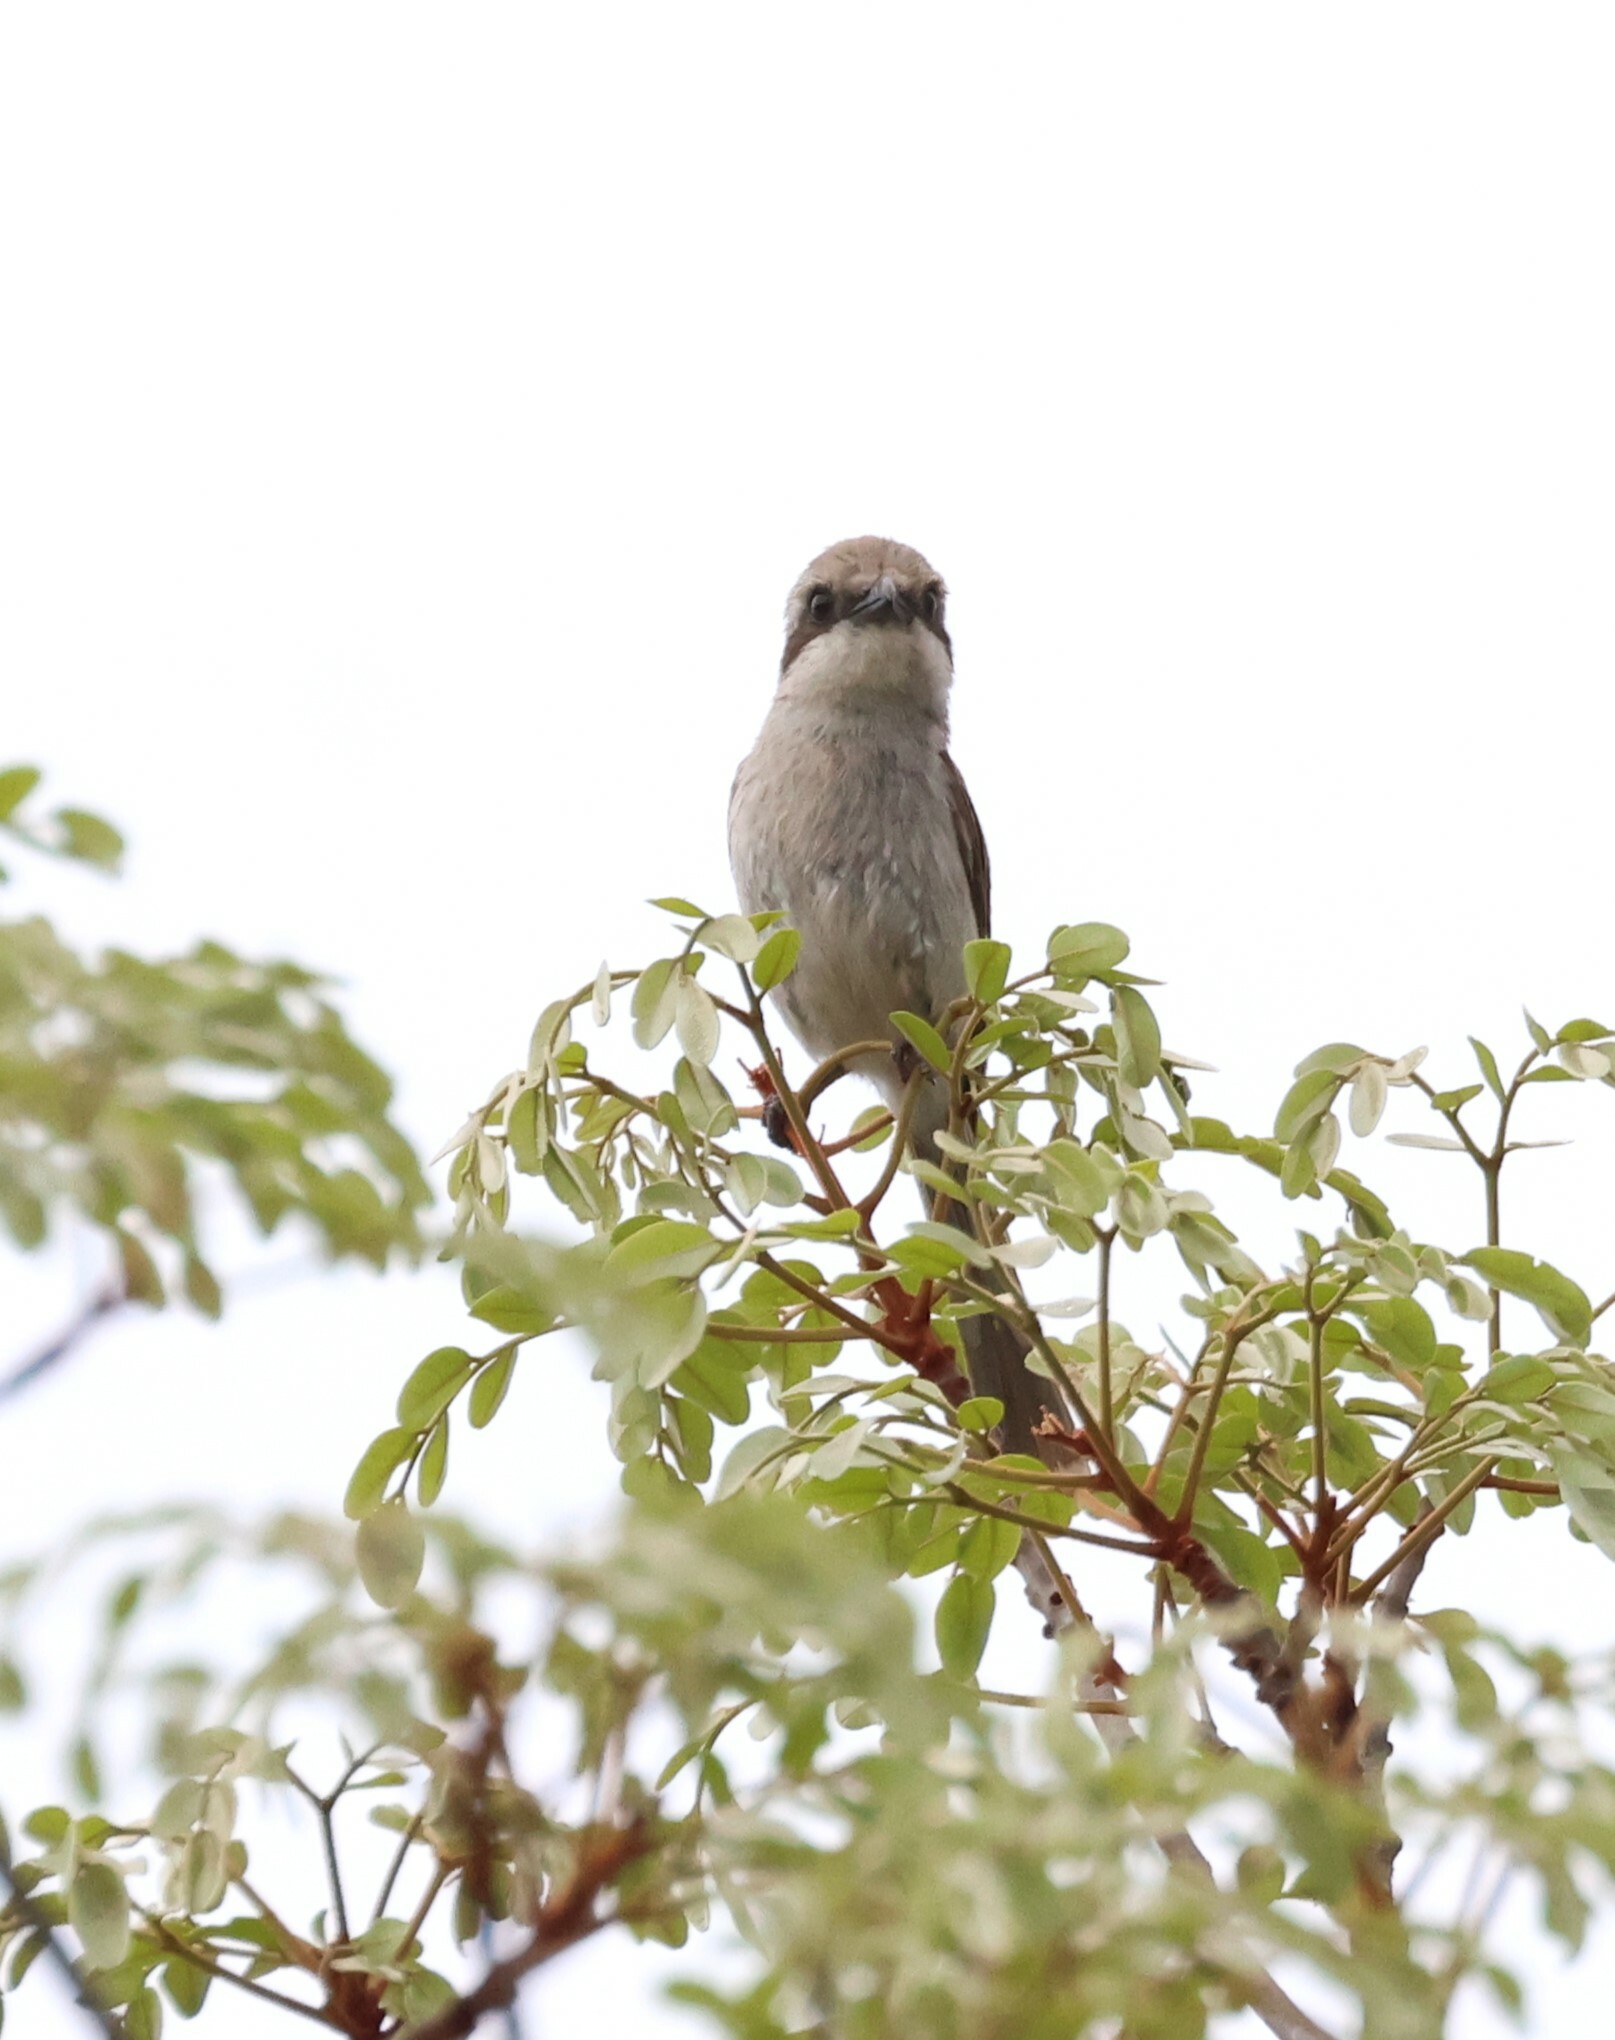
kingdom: Animalia
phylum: Chordata
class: Aves
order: Passeriformes
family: Laniidae
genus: Lanius
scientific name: Lanius souzae
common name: Souza's shrike
